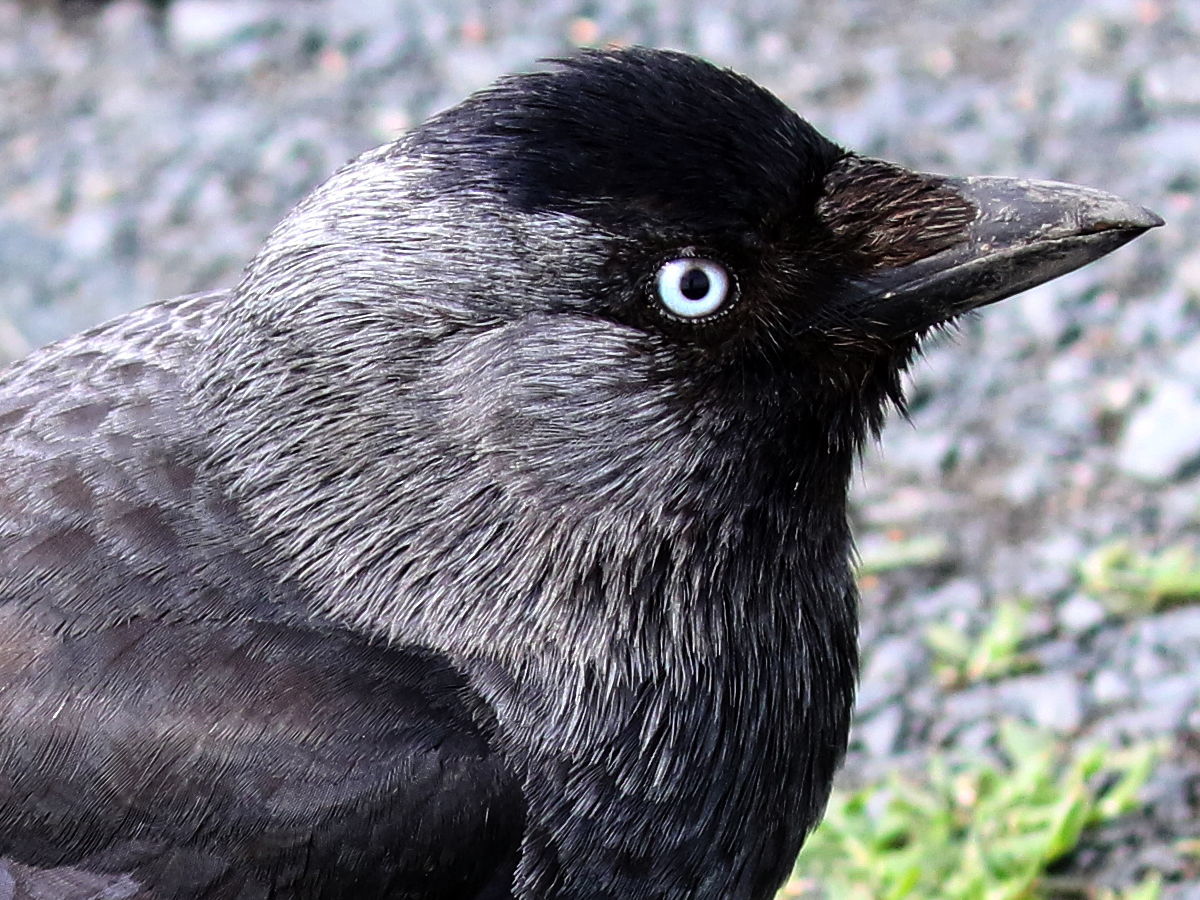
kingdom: Animalia
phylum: Chordata
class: Aves
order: Passeriformes
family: Corvidae
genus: Coloeus
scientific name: Coloeus monedula
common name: Western jackdaw
